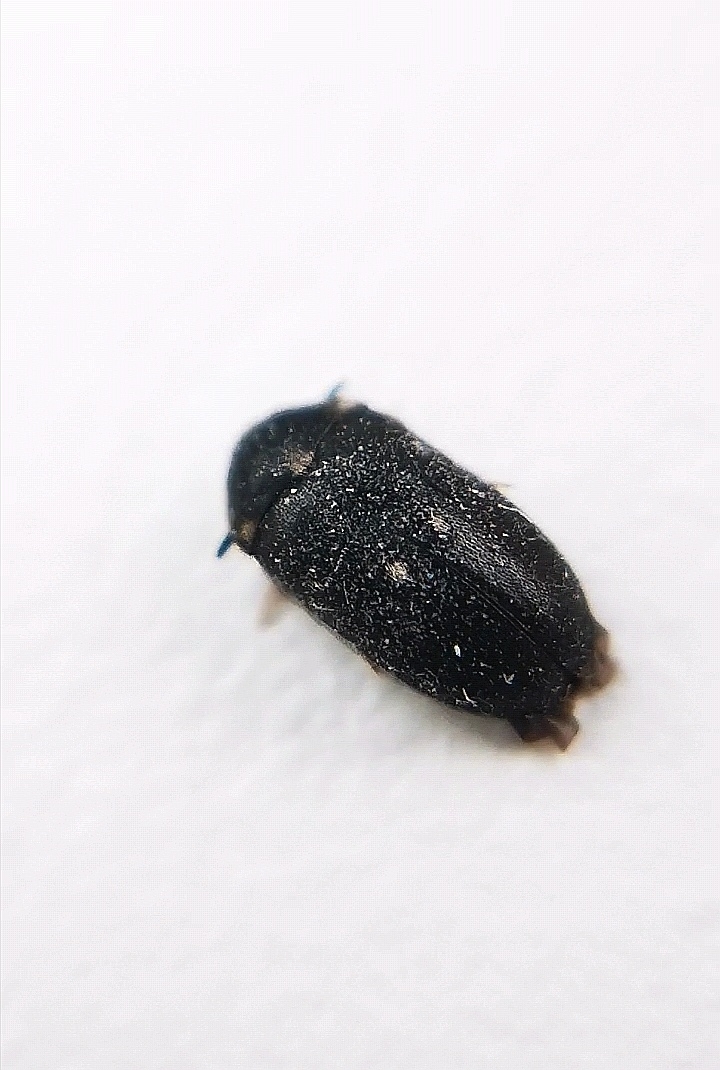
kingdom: Animalia
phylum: Arthropoda
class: Insecta
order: Coleoptera
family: Dermestidae
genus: Attagenus
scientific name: Attagenus pellio
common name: Two-spotted carpet beetle
